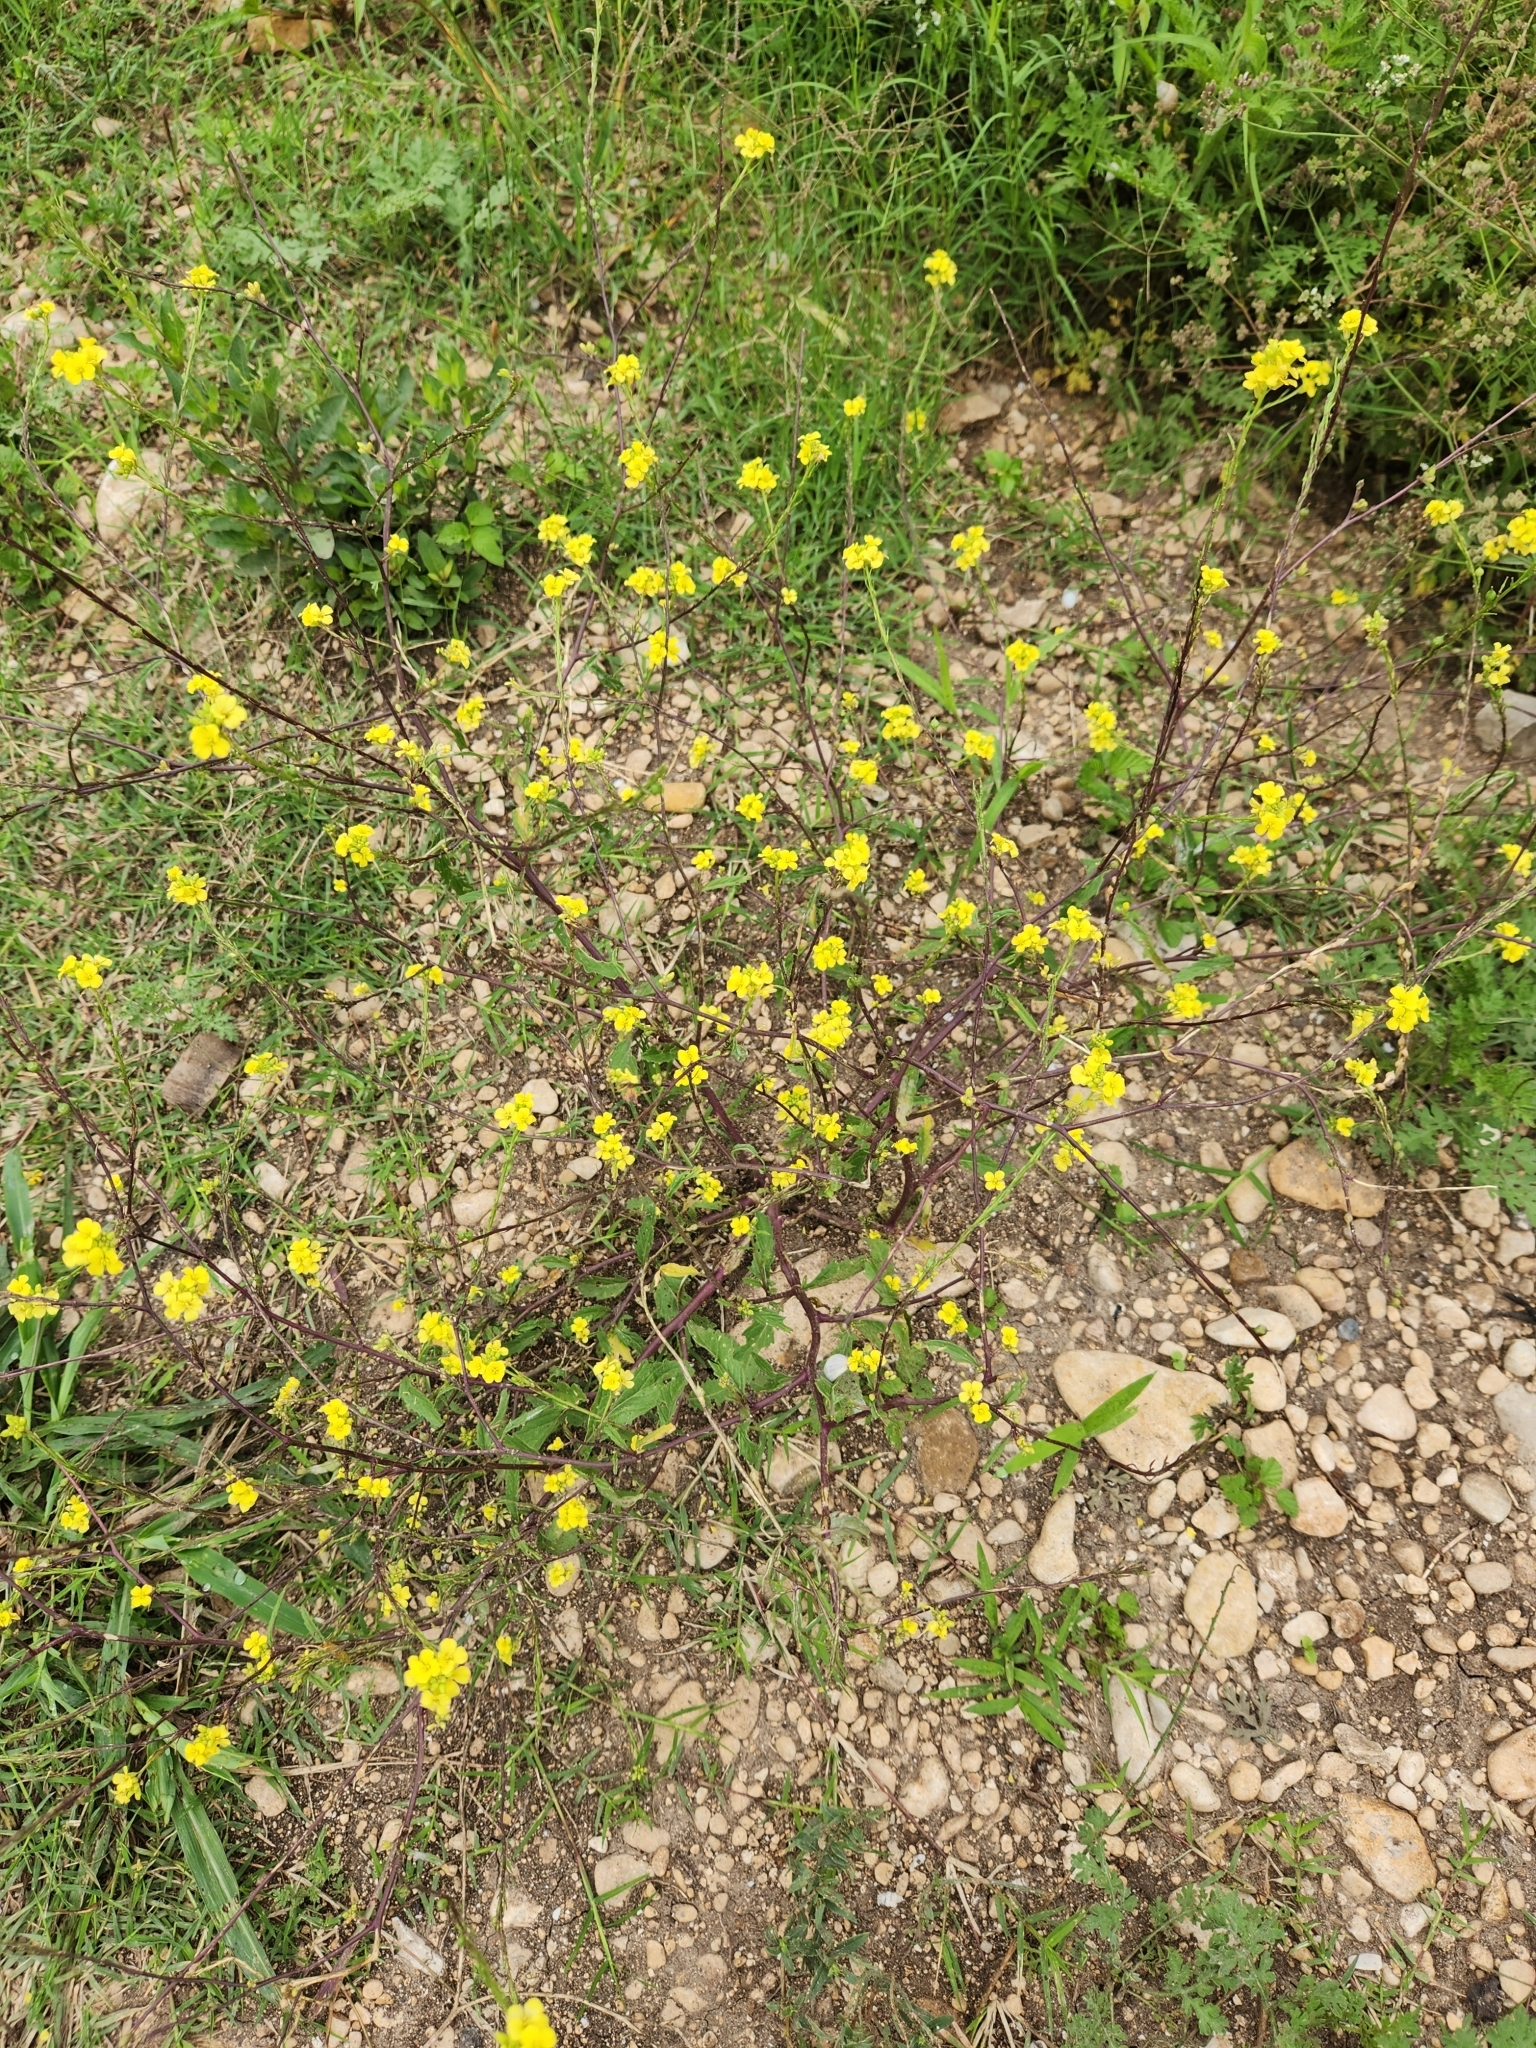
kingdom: Plantae
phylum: Tracheophyta
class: Magnoliopsida
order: Brassicales
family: Brassicaceae
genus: Rapistrum
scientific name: Rapistrum rugosum
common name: Annual bastardcabbage
